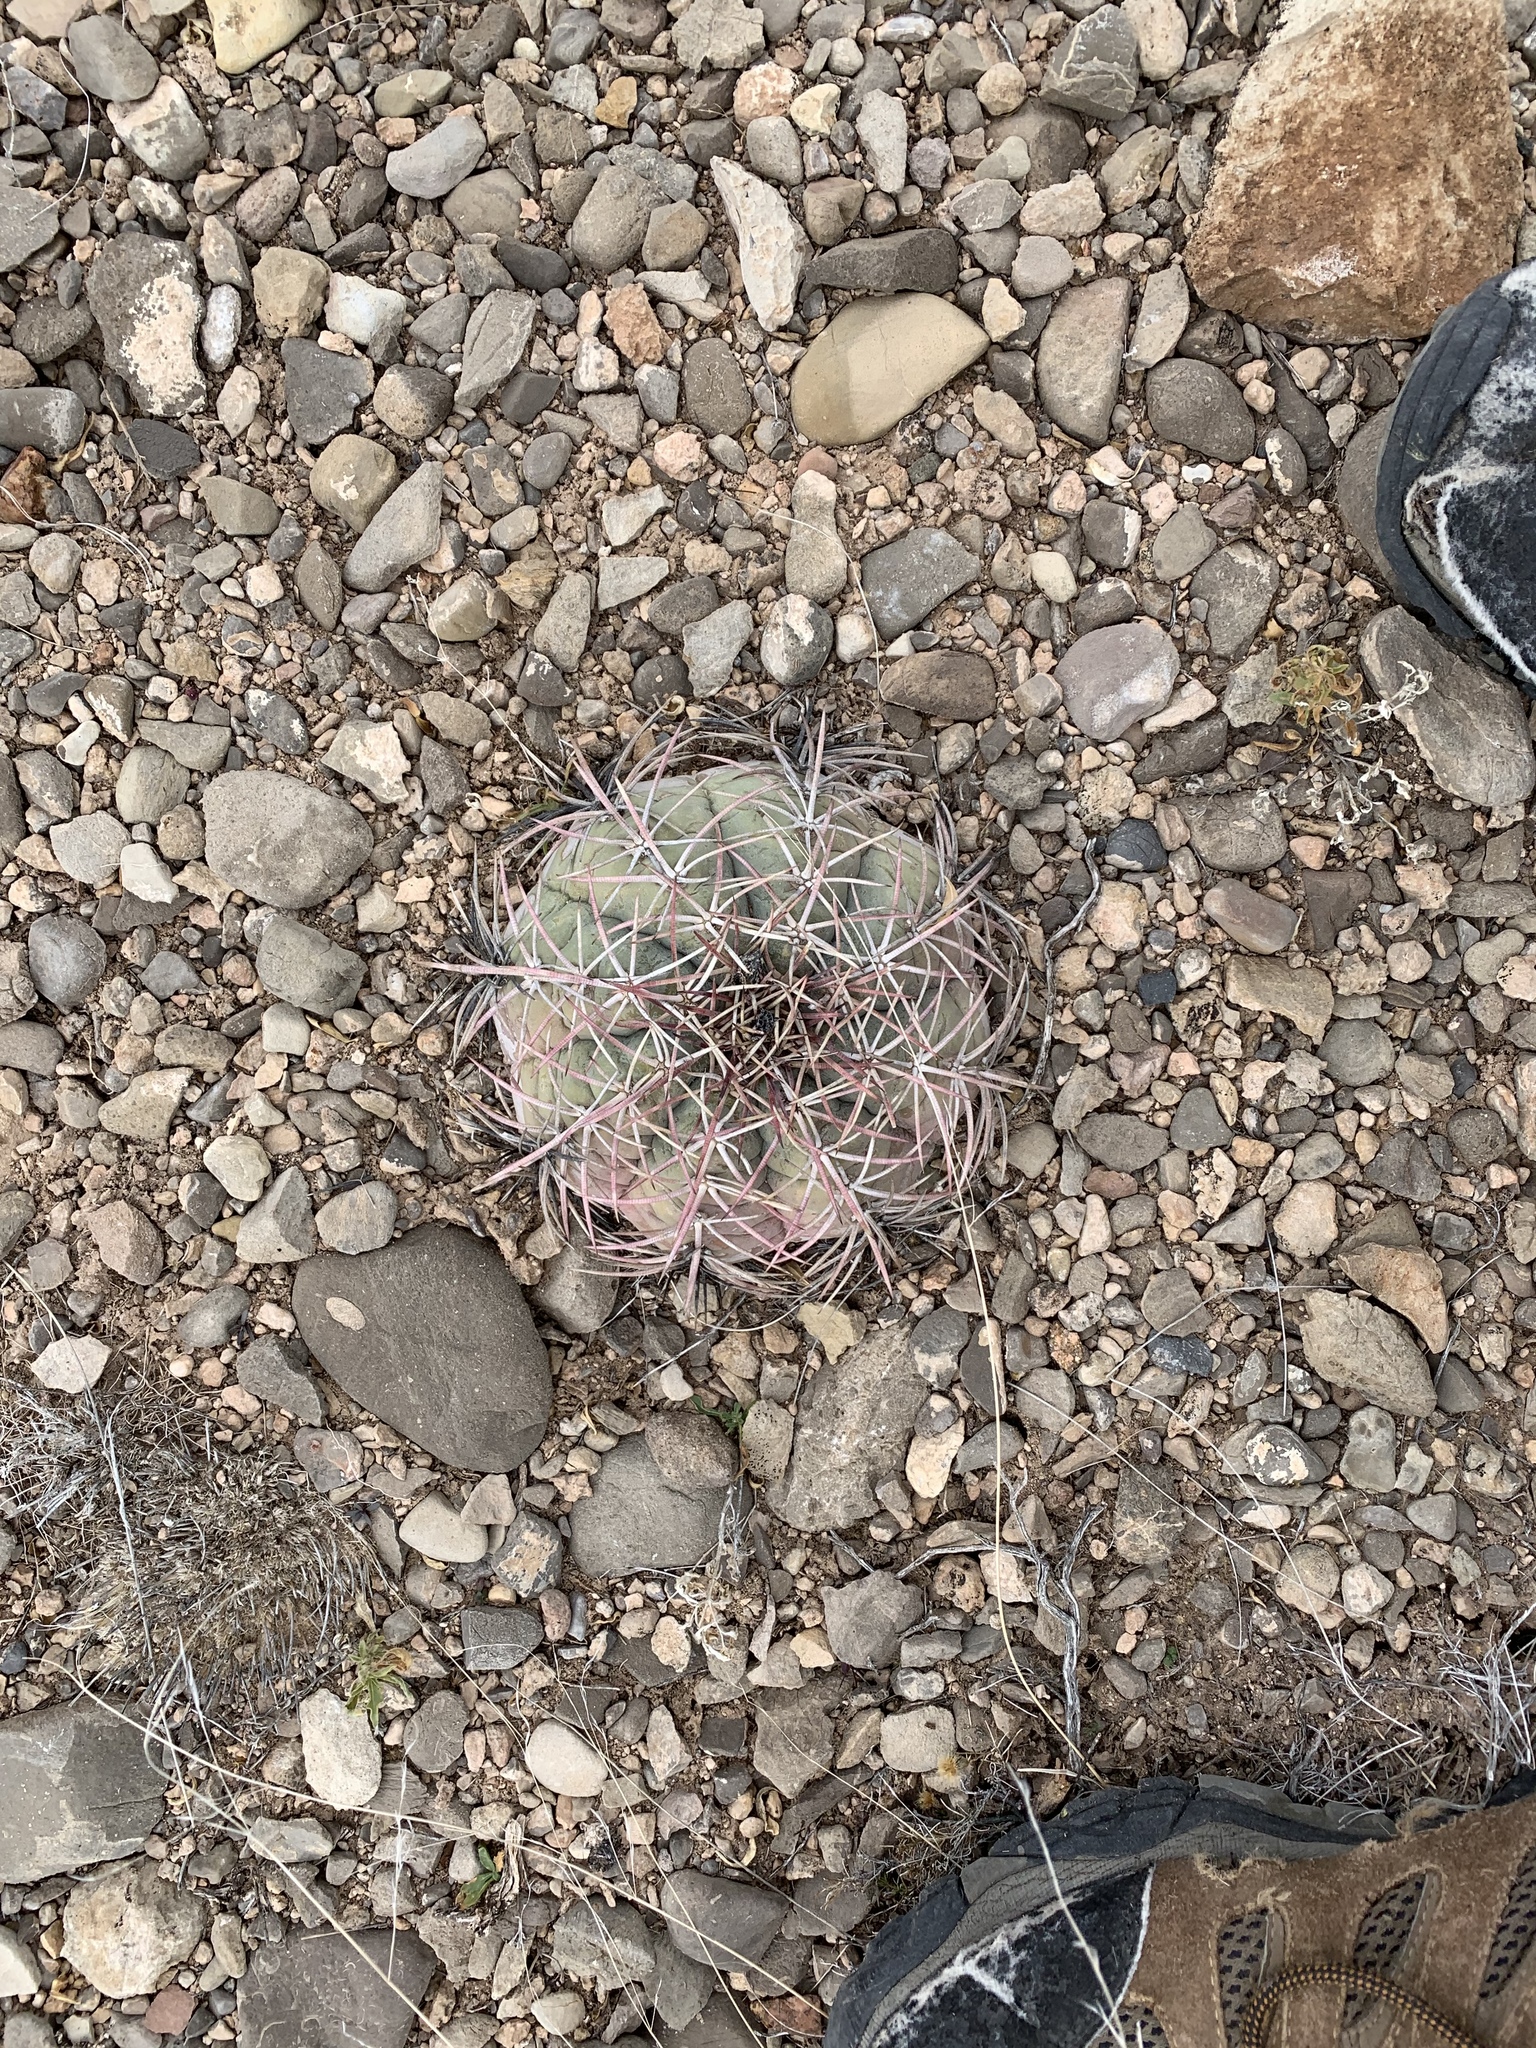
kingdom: Plantae
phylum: Tracheophyta
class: Magnoliopsida
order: Caryophyllales
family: Cactaceae
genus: Echinocactus
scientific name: Echinocactus horizonthalonius
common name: Devilshead
